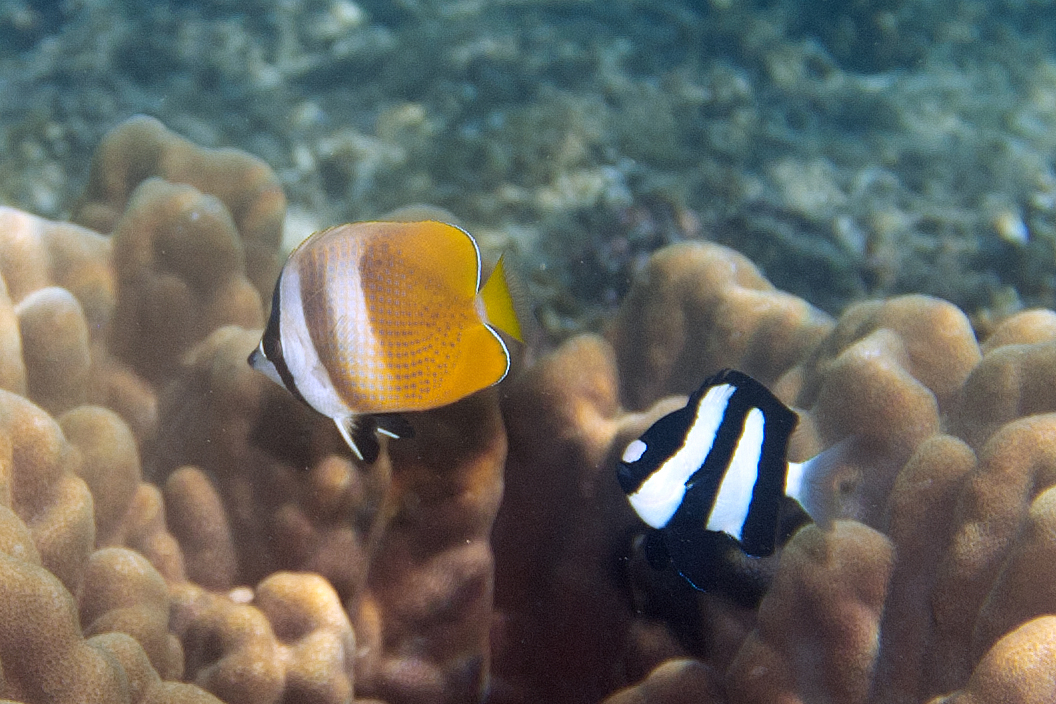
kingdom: Animalia
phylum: Chordata
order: Perciformes
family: Chaetodontidae
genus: Chaetodon
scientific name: Chaetodon kleinii
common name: Klein's butterflyfish
